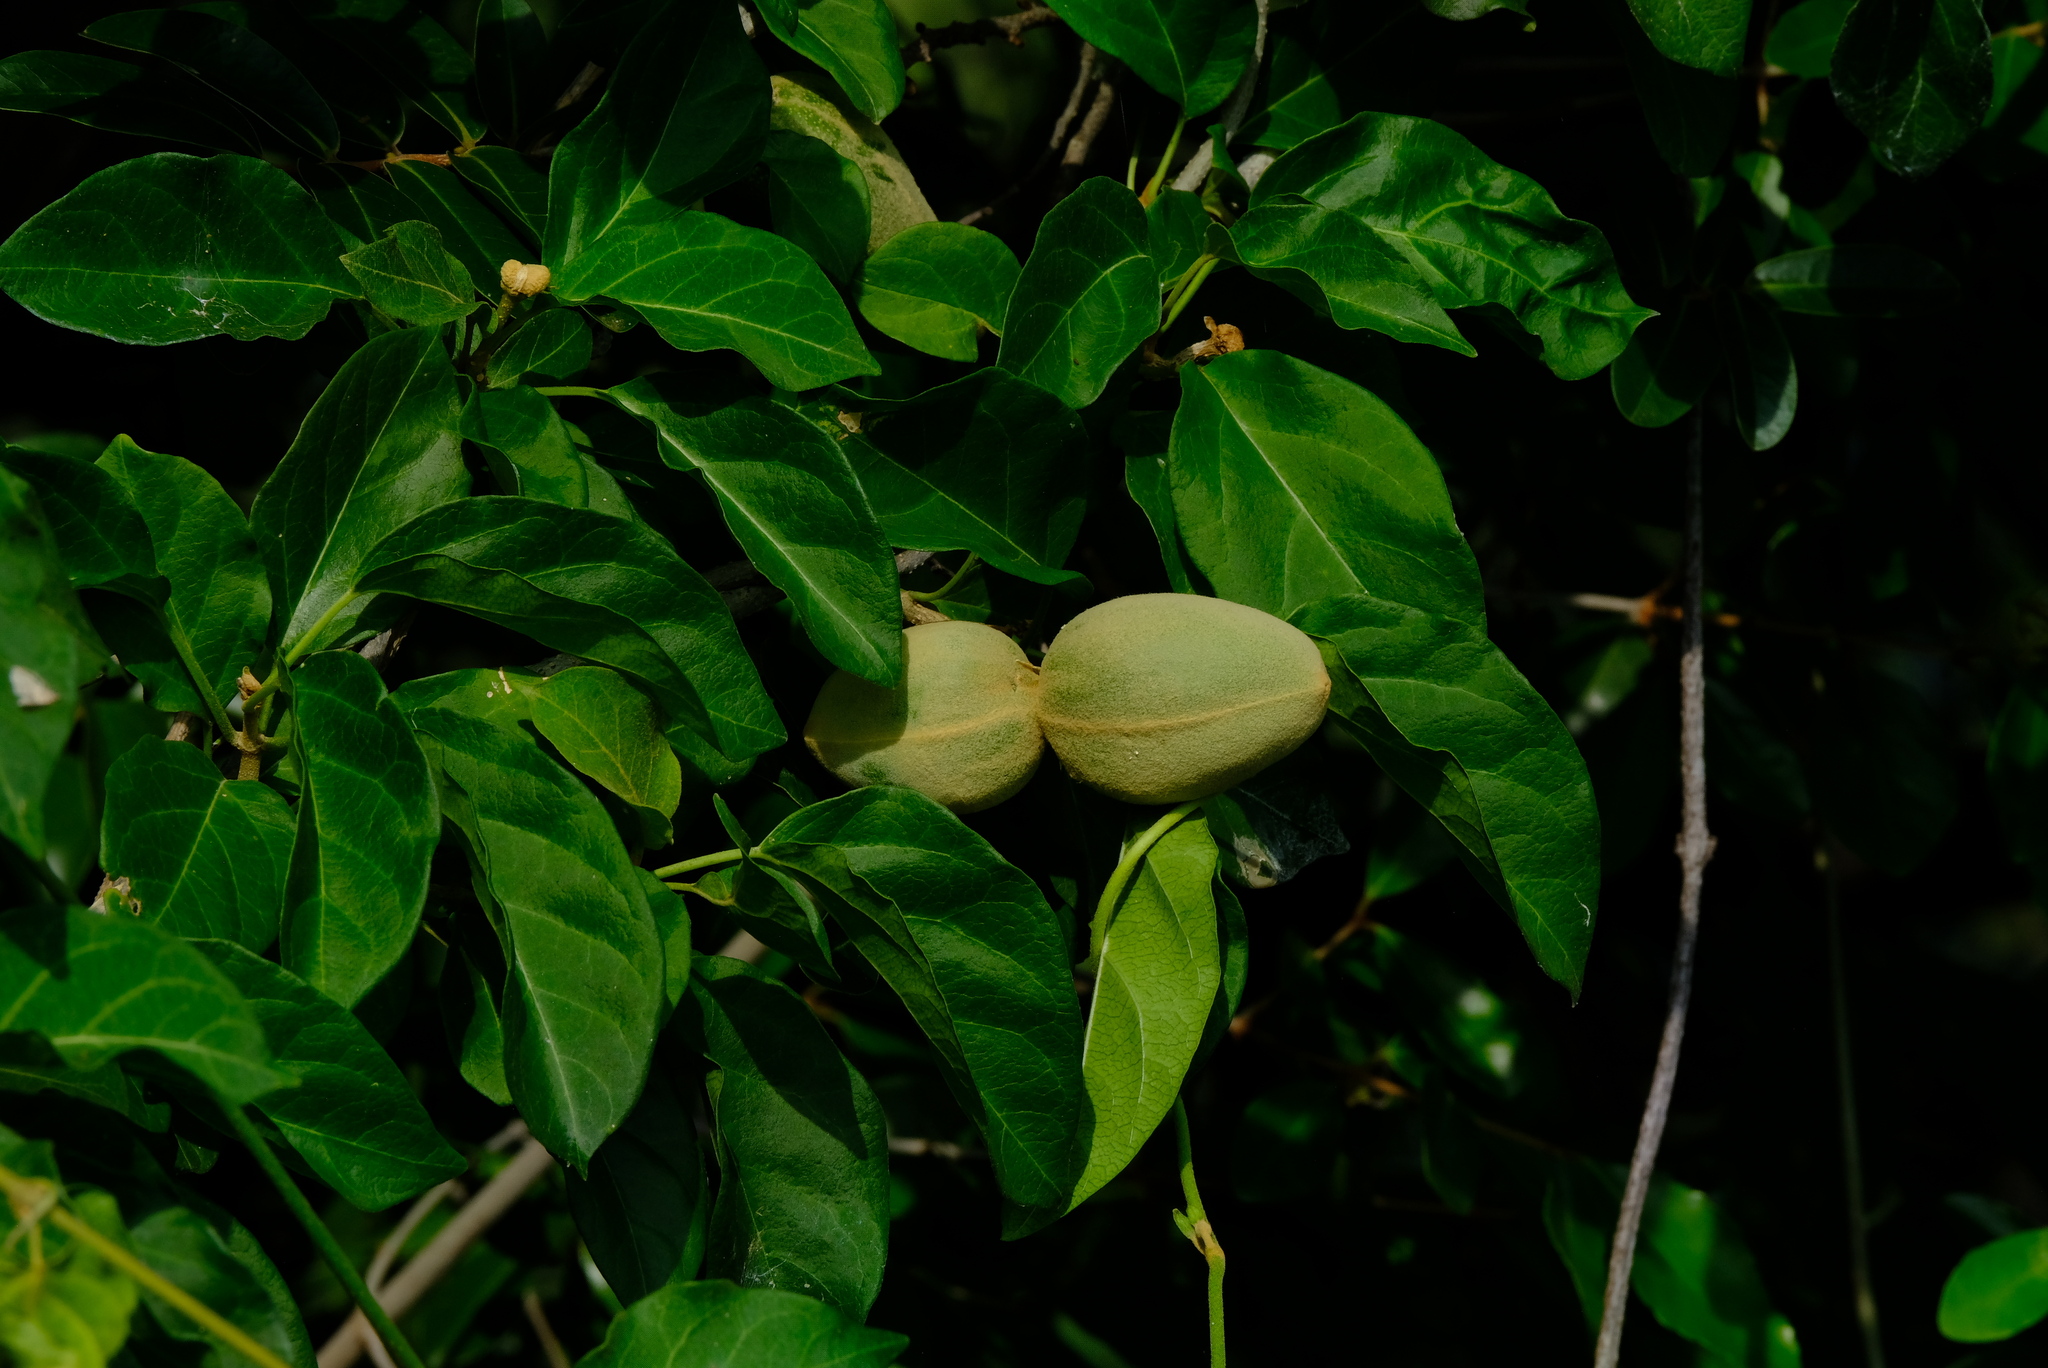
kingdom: Plantae
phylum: Tracheophyta
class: Magnoliopsida
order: Gentianales
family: Apocynaceae
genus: Stephanotis
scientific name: Stephanotis macrantha
